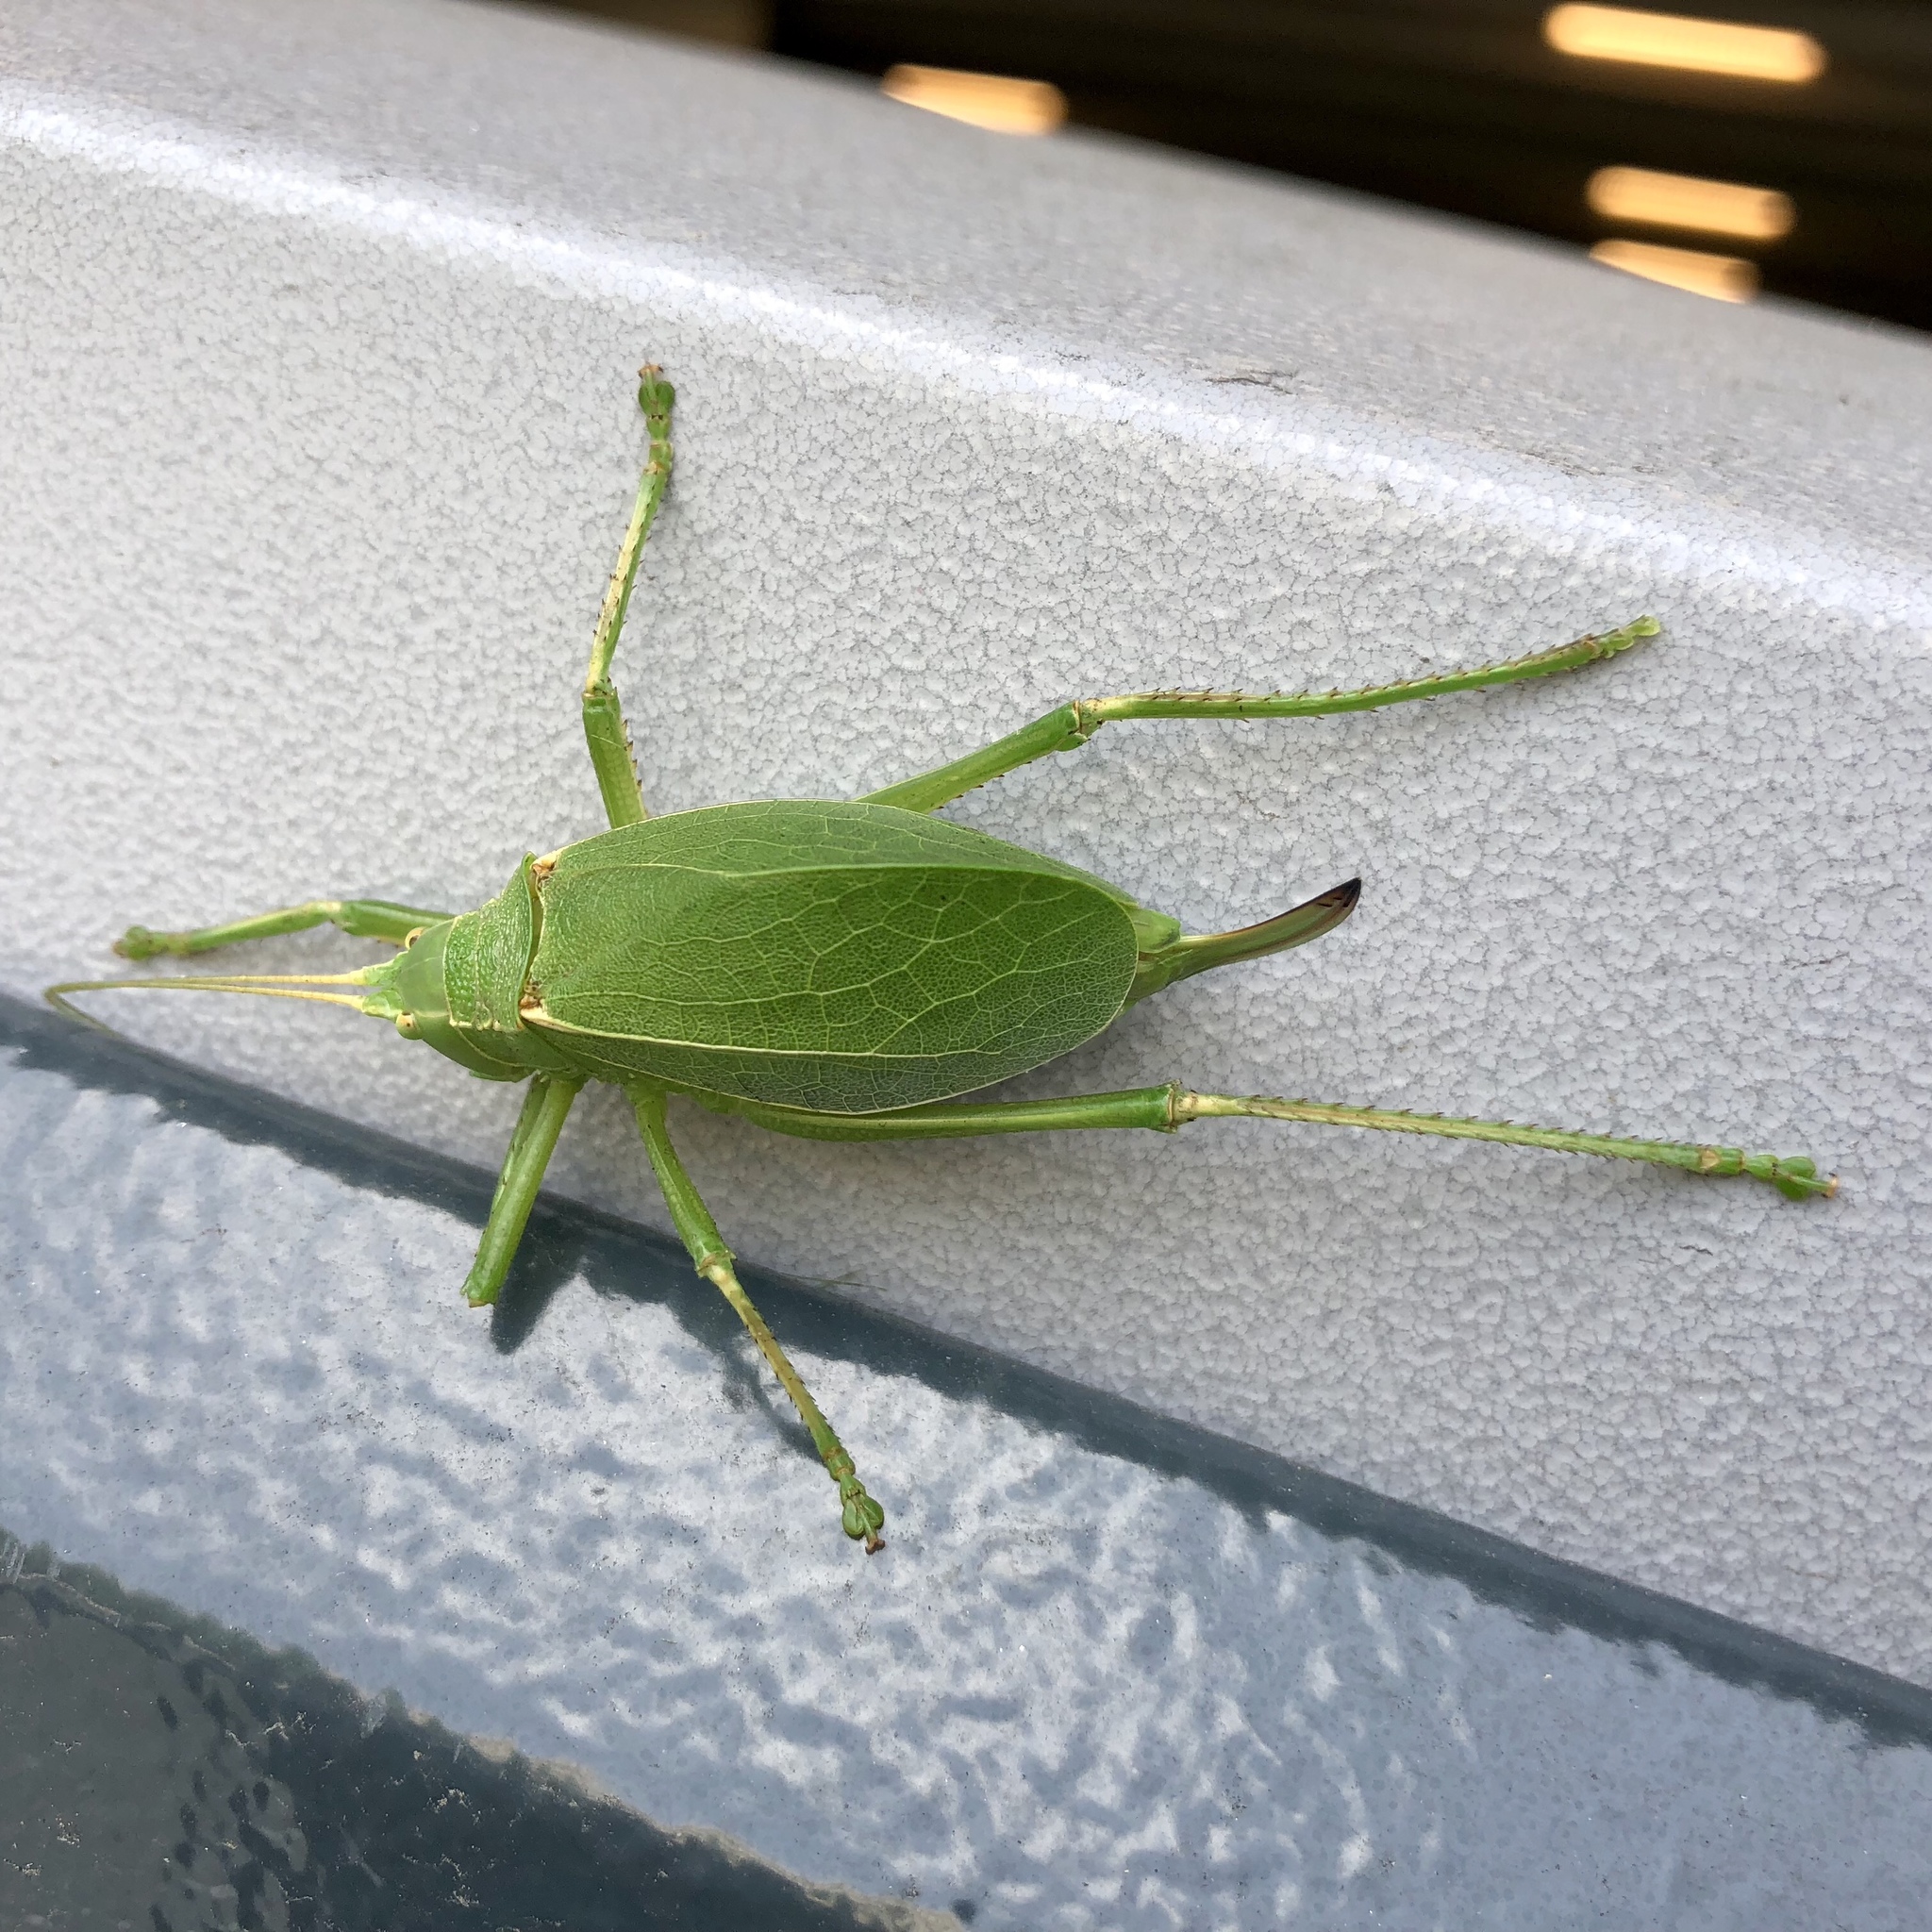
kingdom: Animalia
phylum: Arthropoda
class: Insecta
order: Orthoptera
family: Tettigoniidae
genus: Paracyrtophyllus
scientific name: Paracyrtophyllus robustus
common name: Central texas leaf katydid
